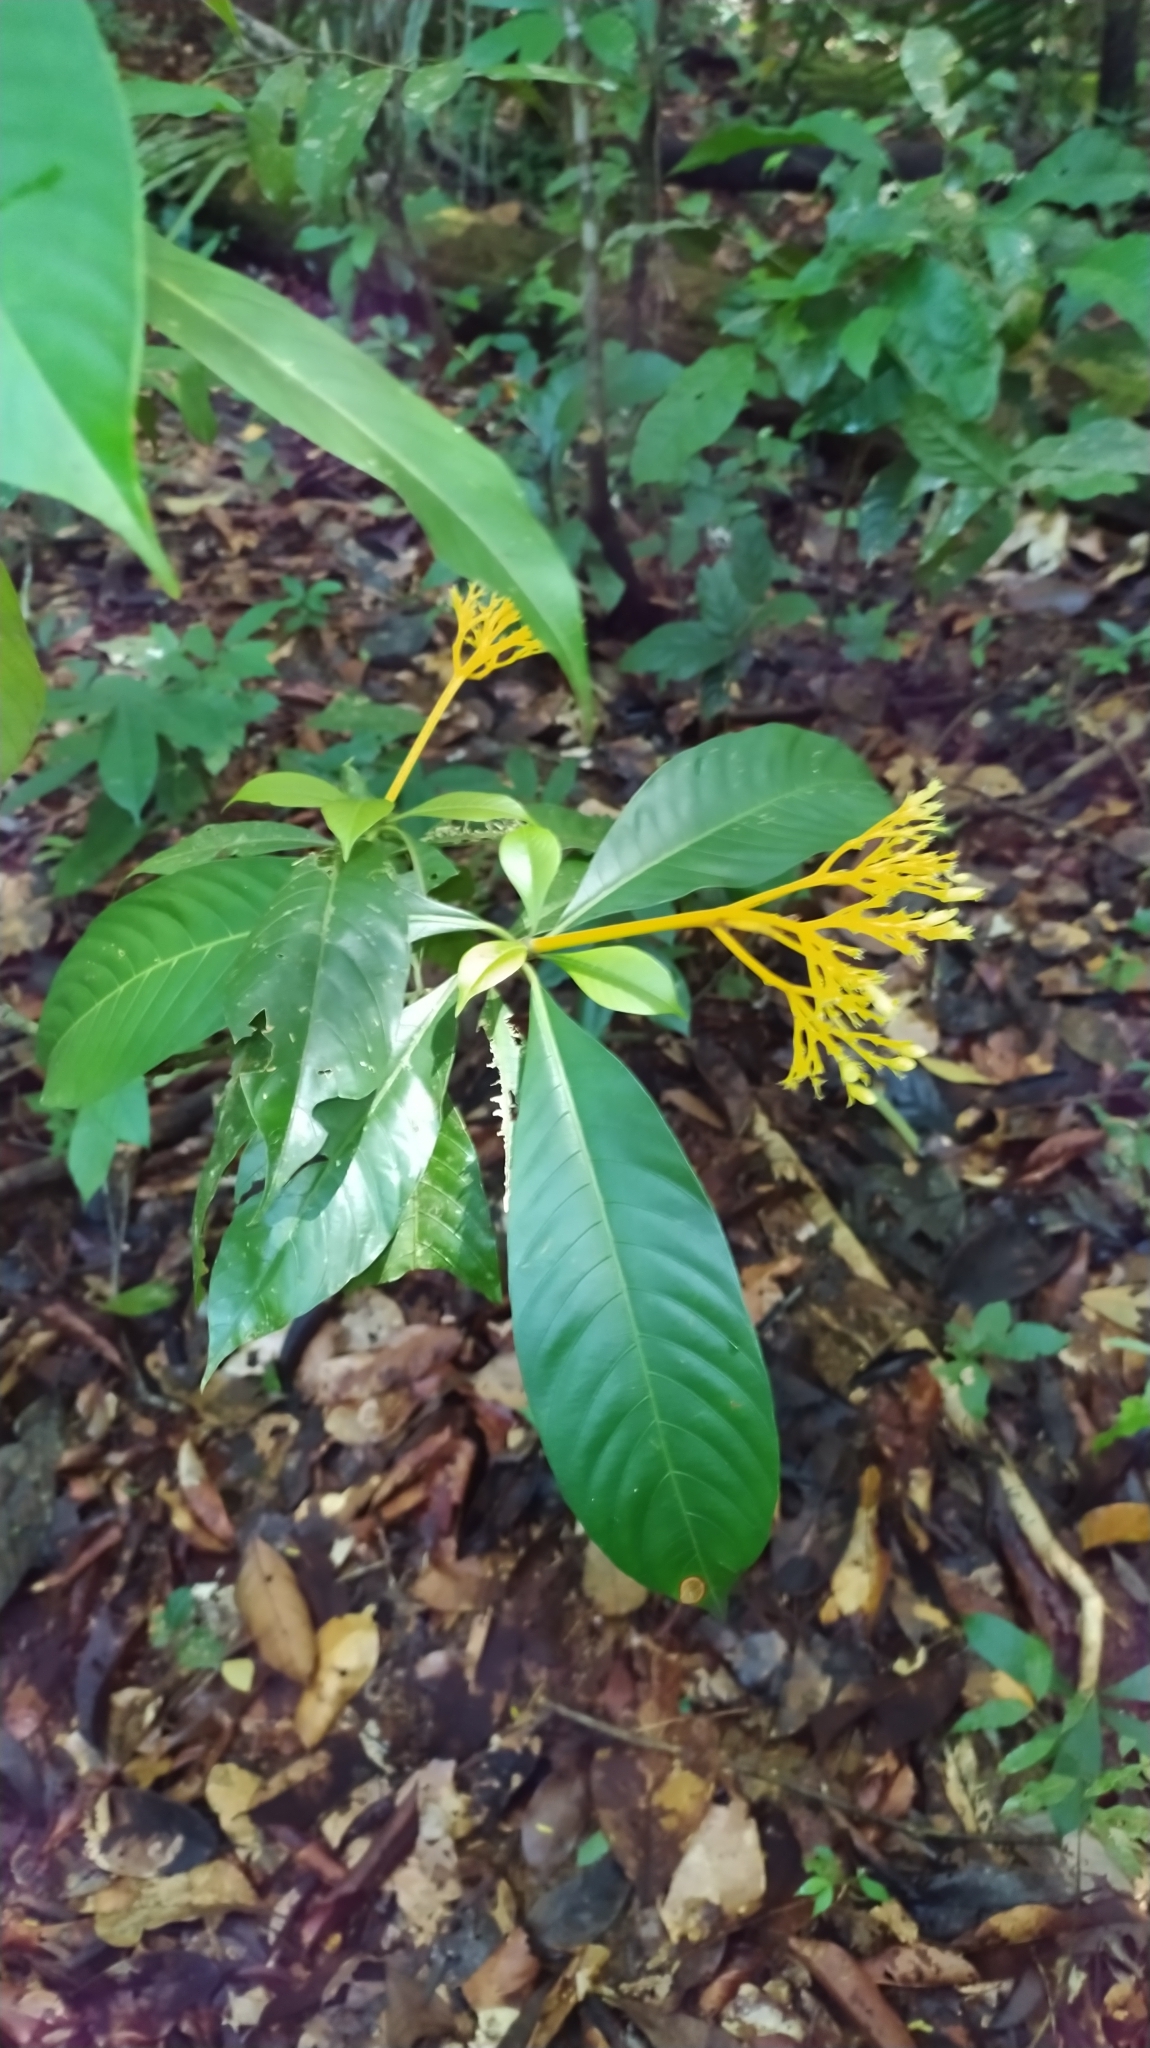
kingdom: Plantae
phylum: Tracheophyta
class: Magnoliopsida
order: Gentianales
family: Rubiaceae
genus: Palicourea
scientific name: Palicourea quadrifolia
